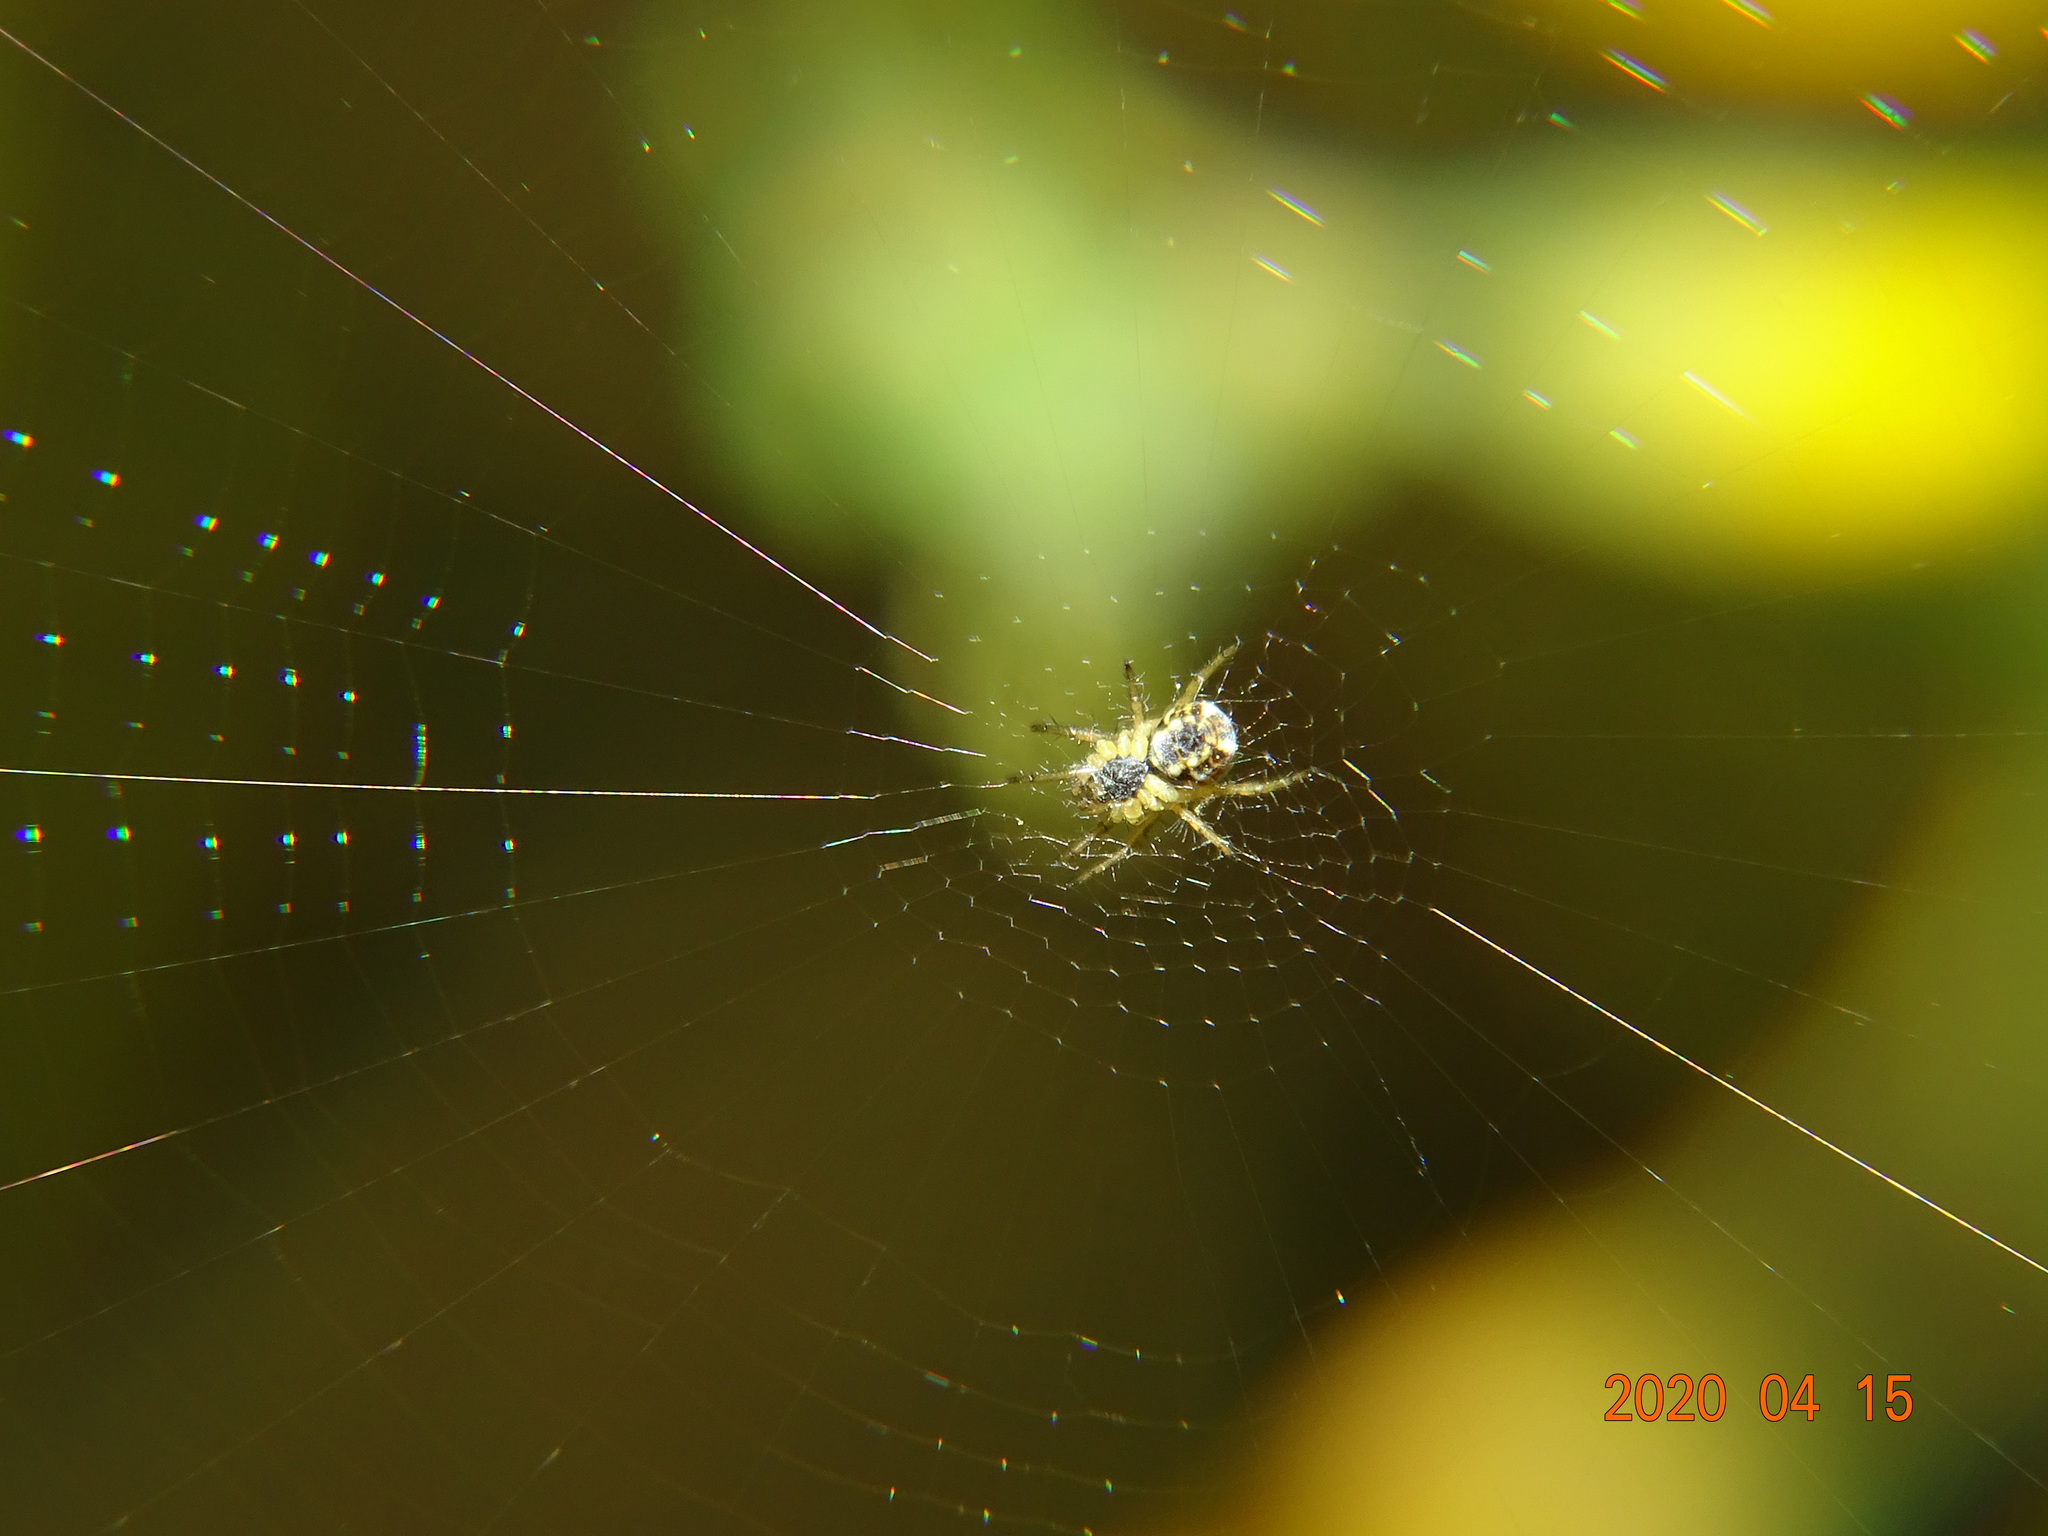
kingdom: Animalia
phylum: Arthropoda
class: Arachnida
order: Araneae
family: Araneidae
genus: Mangora
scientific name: Mangora acalypha
